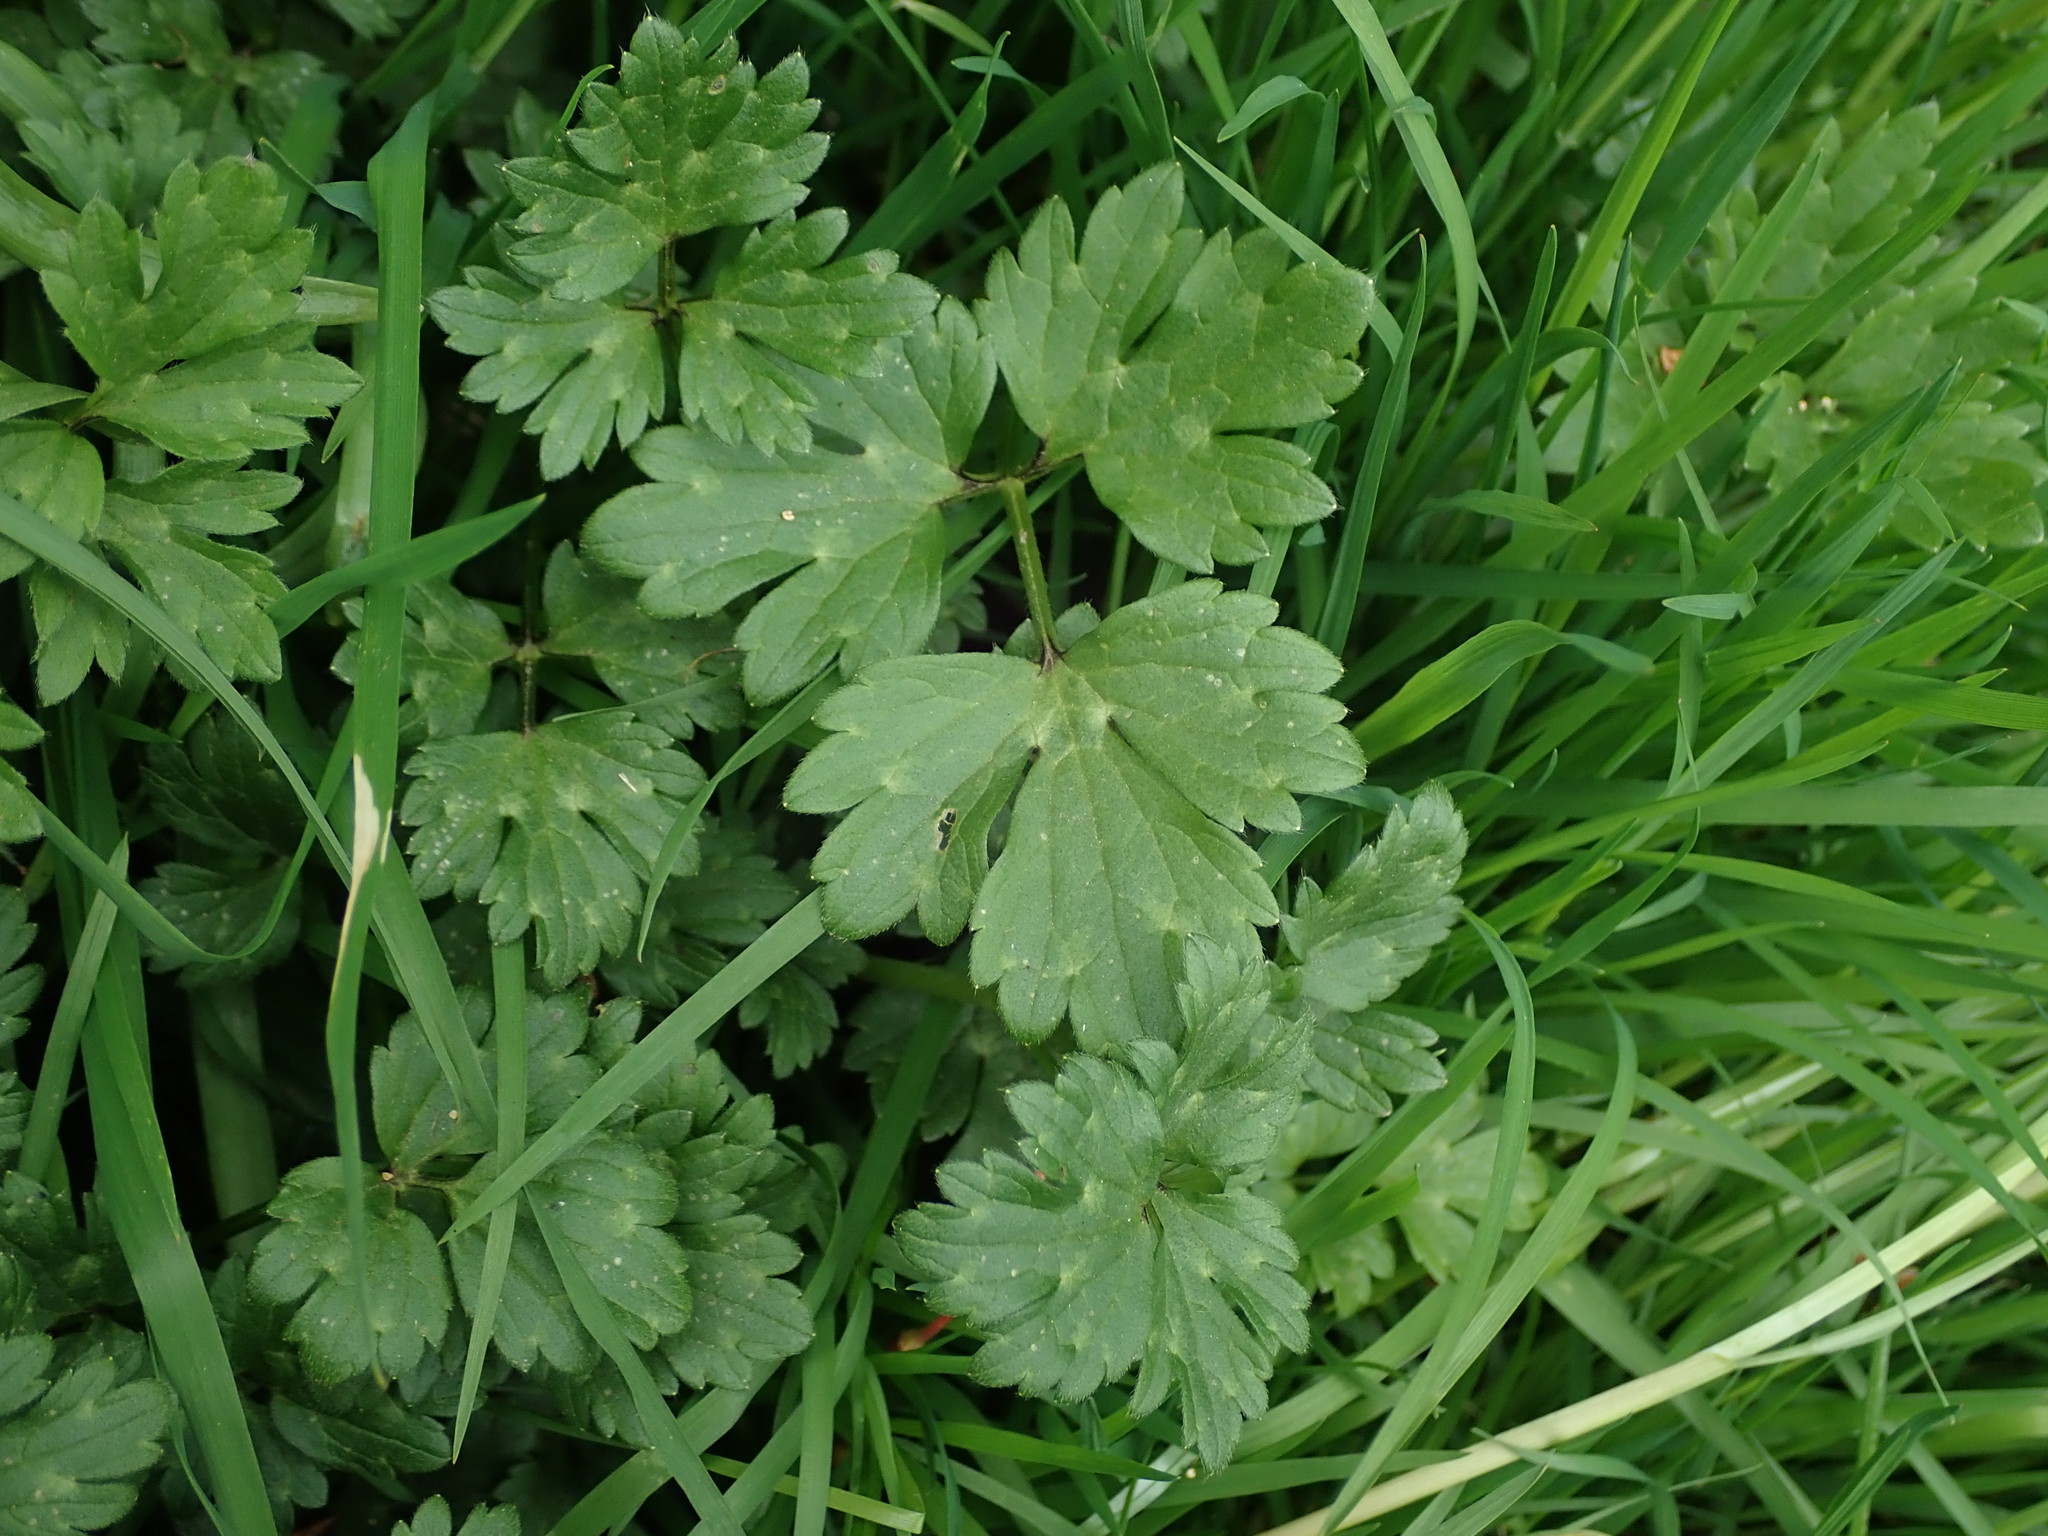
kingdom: Plantae
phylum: Tracheophyta
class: Magnoliopsida
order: Ranunculales
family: Ranunculaceae
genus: Ranunculus
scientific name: Ranunculus repens
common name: Creeping buttercup
